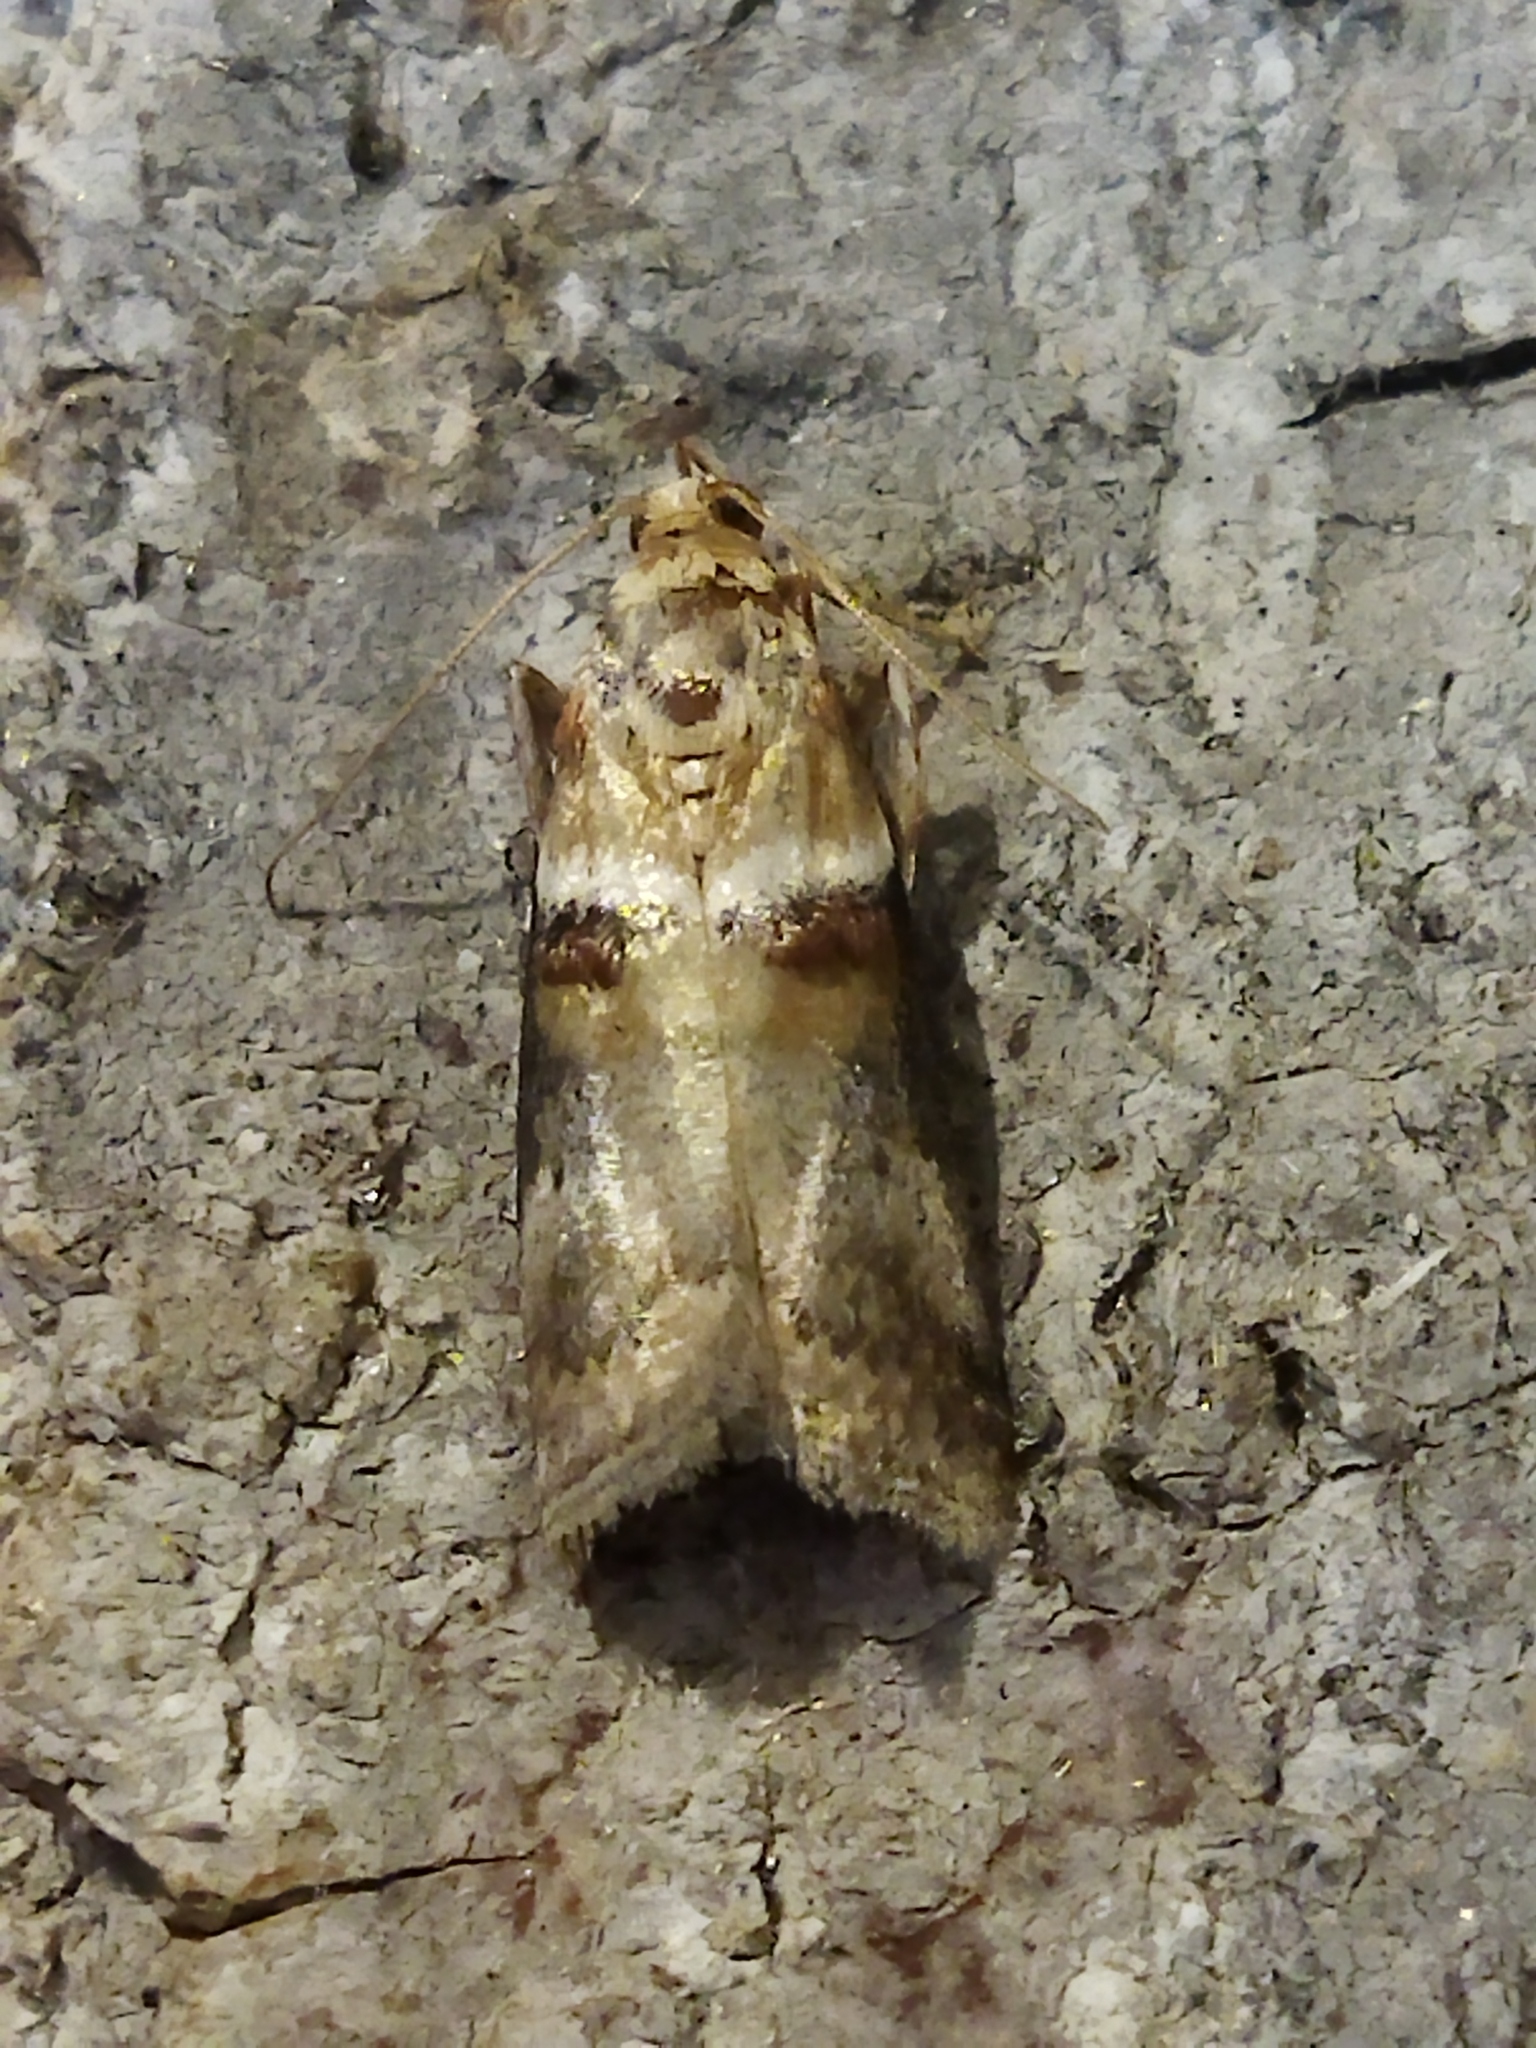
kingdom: Animalia
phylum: Arthropoda
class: Insecta
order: Lepidoptera
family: Pyralidae
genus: Acrobasis
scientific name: Acrobasis tumidana
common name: Scarce oak knot-horn
